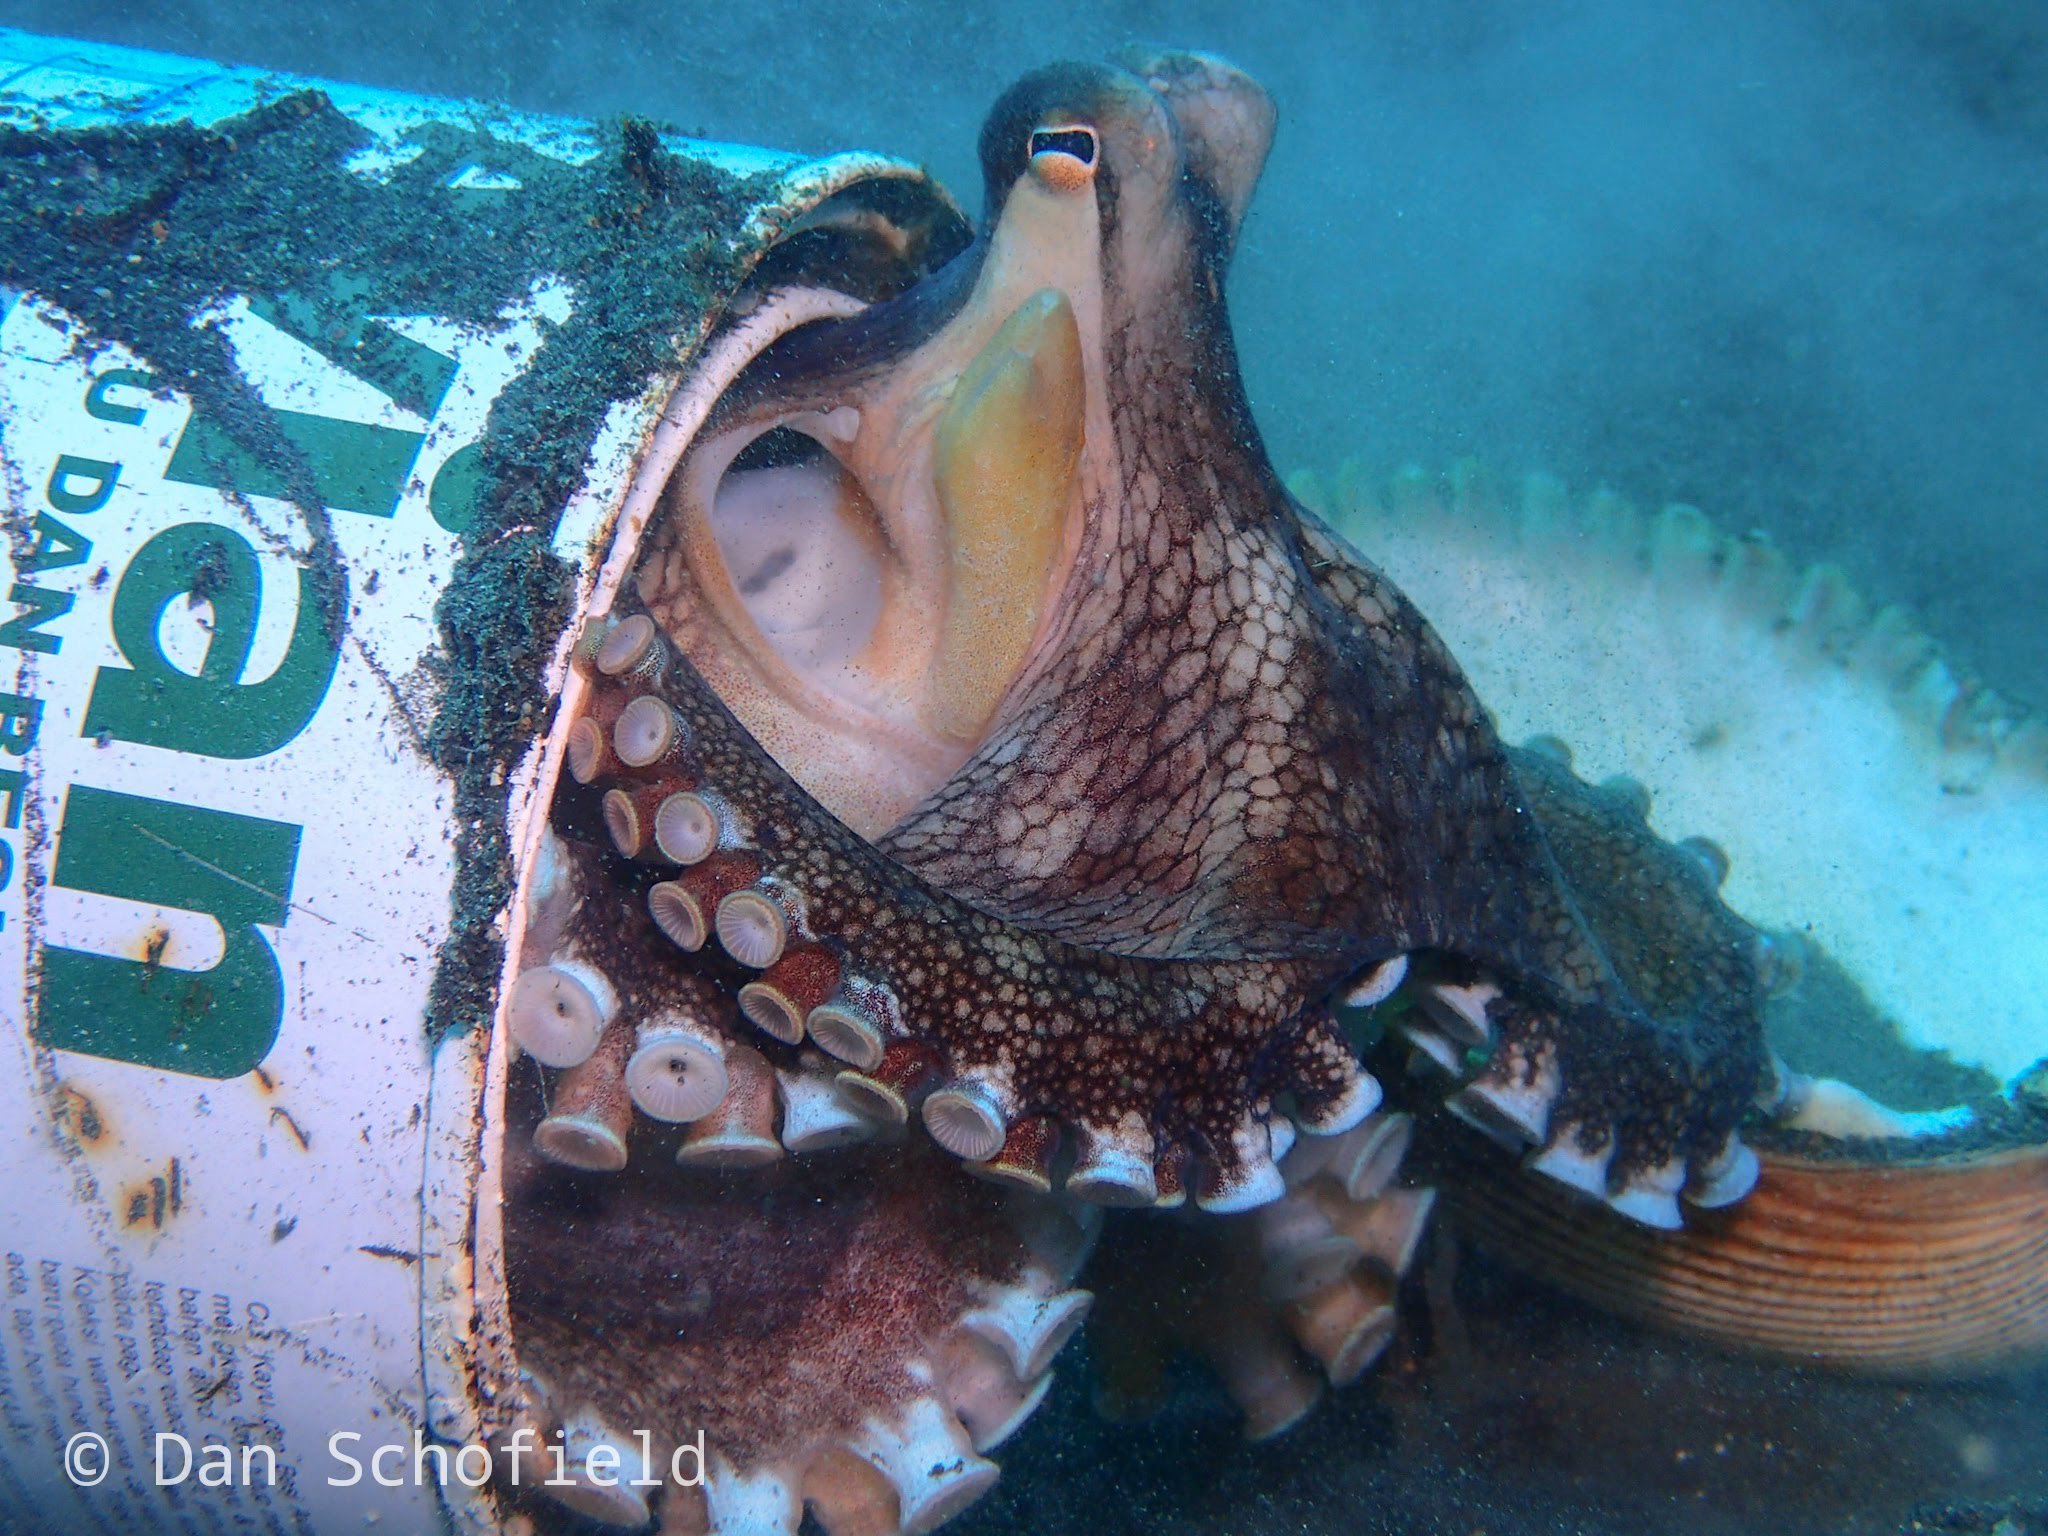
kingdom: Animalia
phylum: Mollusca
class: Cephalopoda
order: Octopoda
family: Octopodidae
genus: Amphioctopus
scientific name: Amphioctopus marginatus
